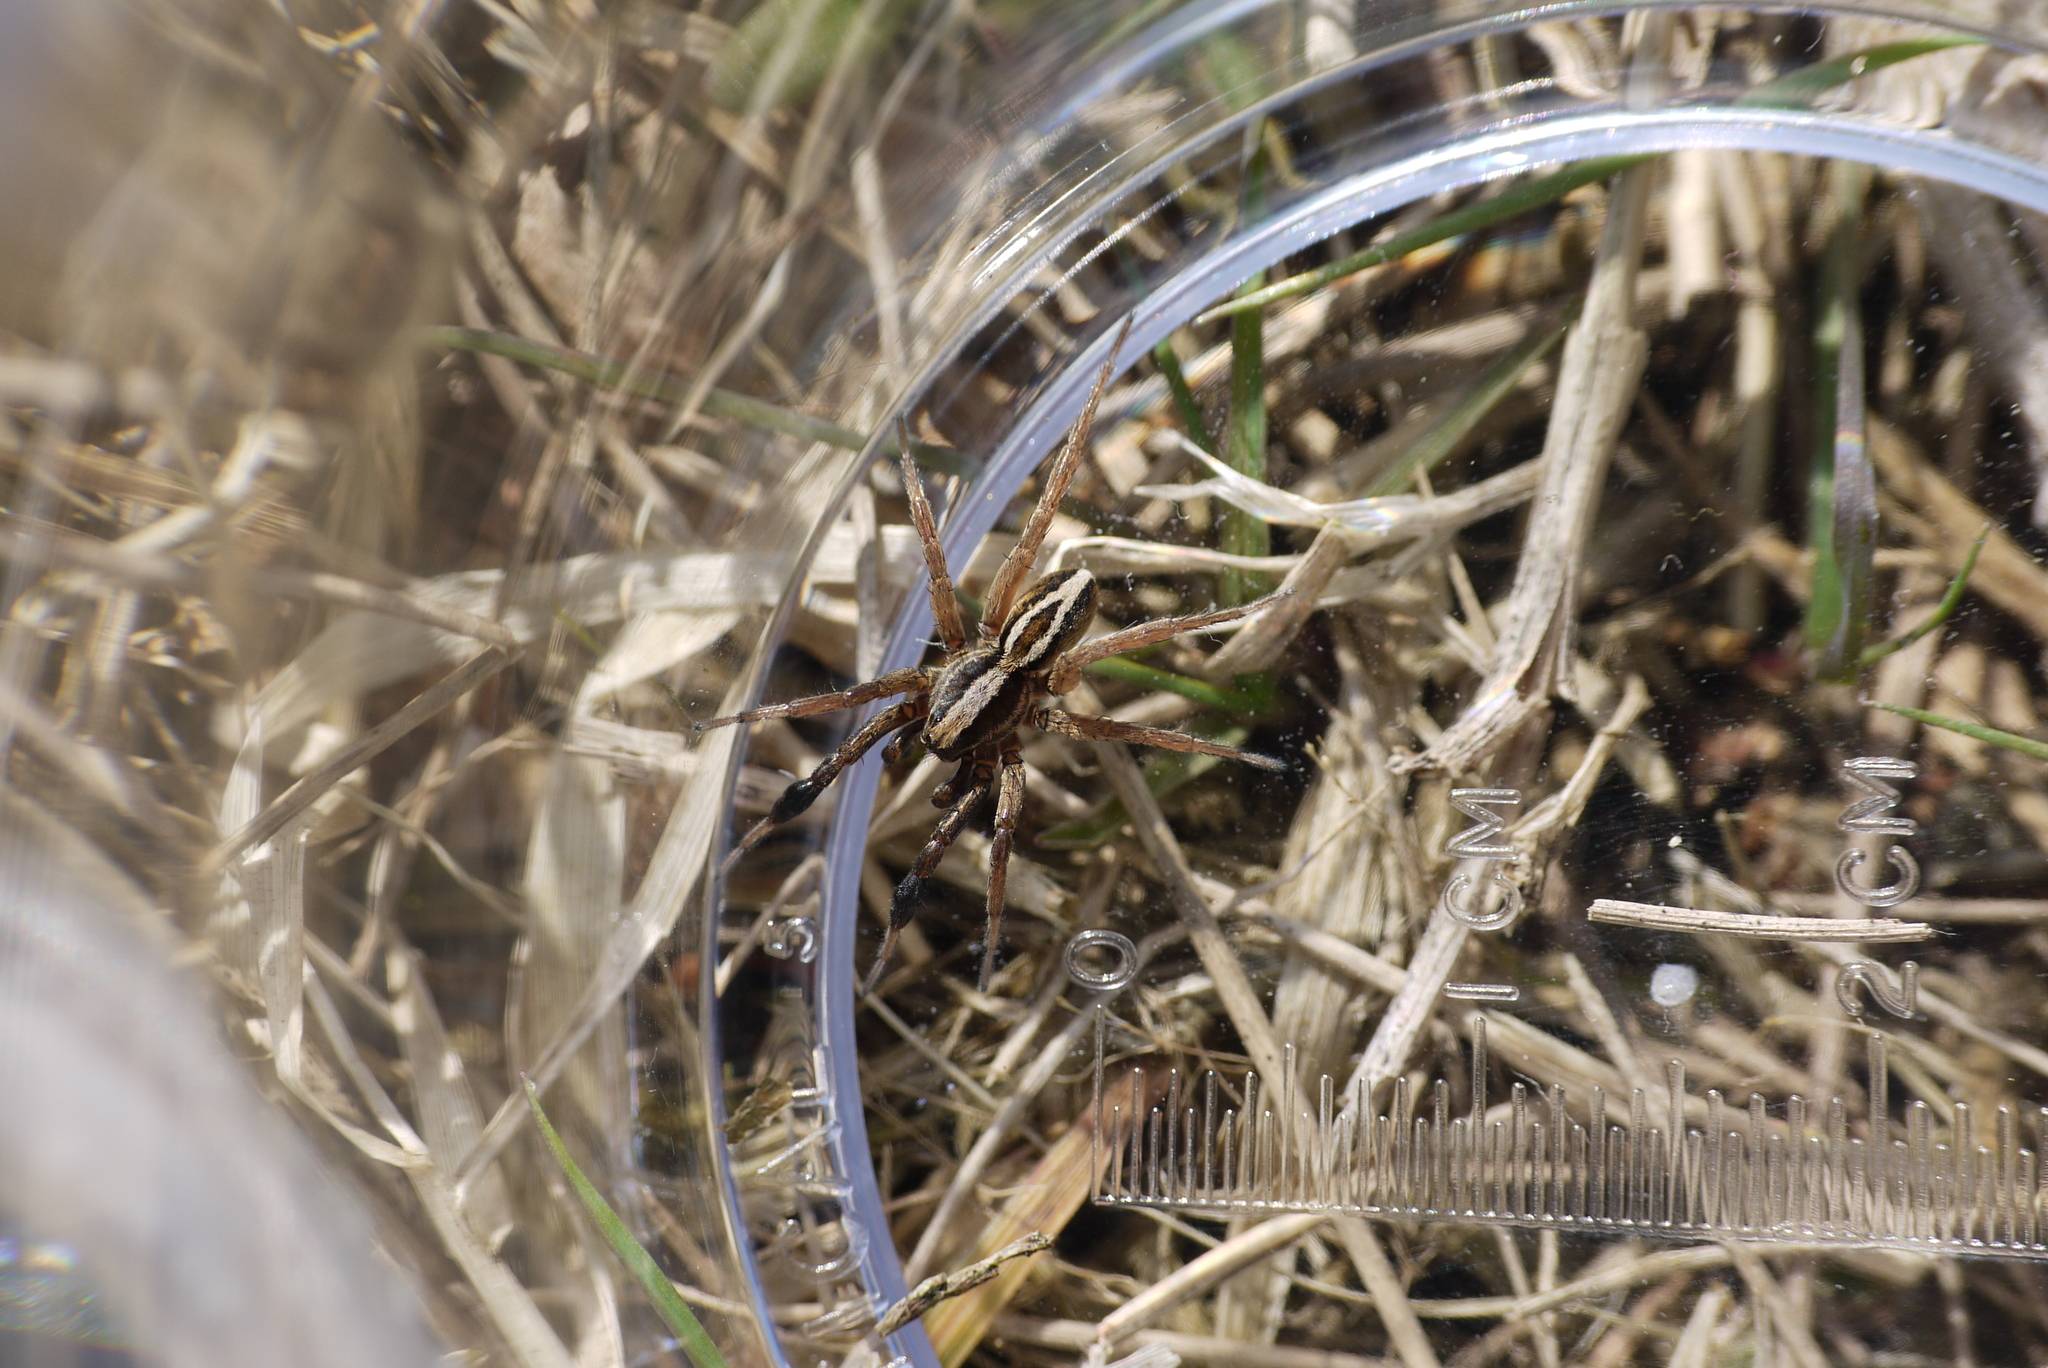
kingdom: Animalia
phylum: Arthropoda
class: Arachnida
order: Araneae
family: Lycosidae
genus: Alopecosa
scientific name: Alopecosa cuneata
